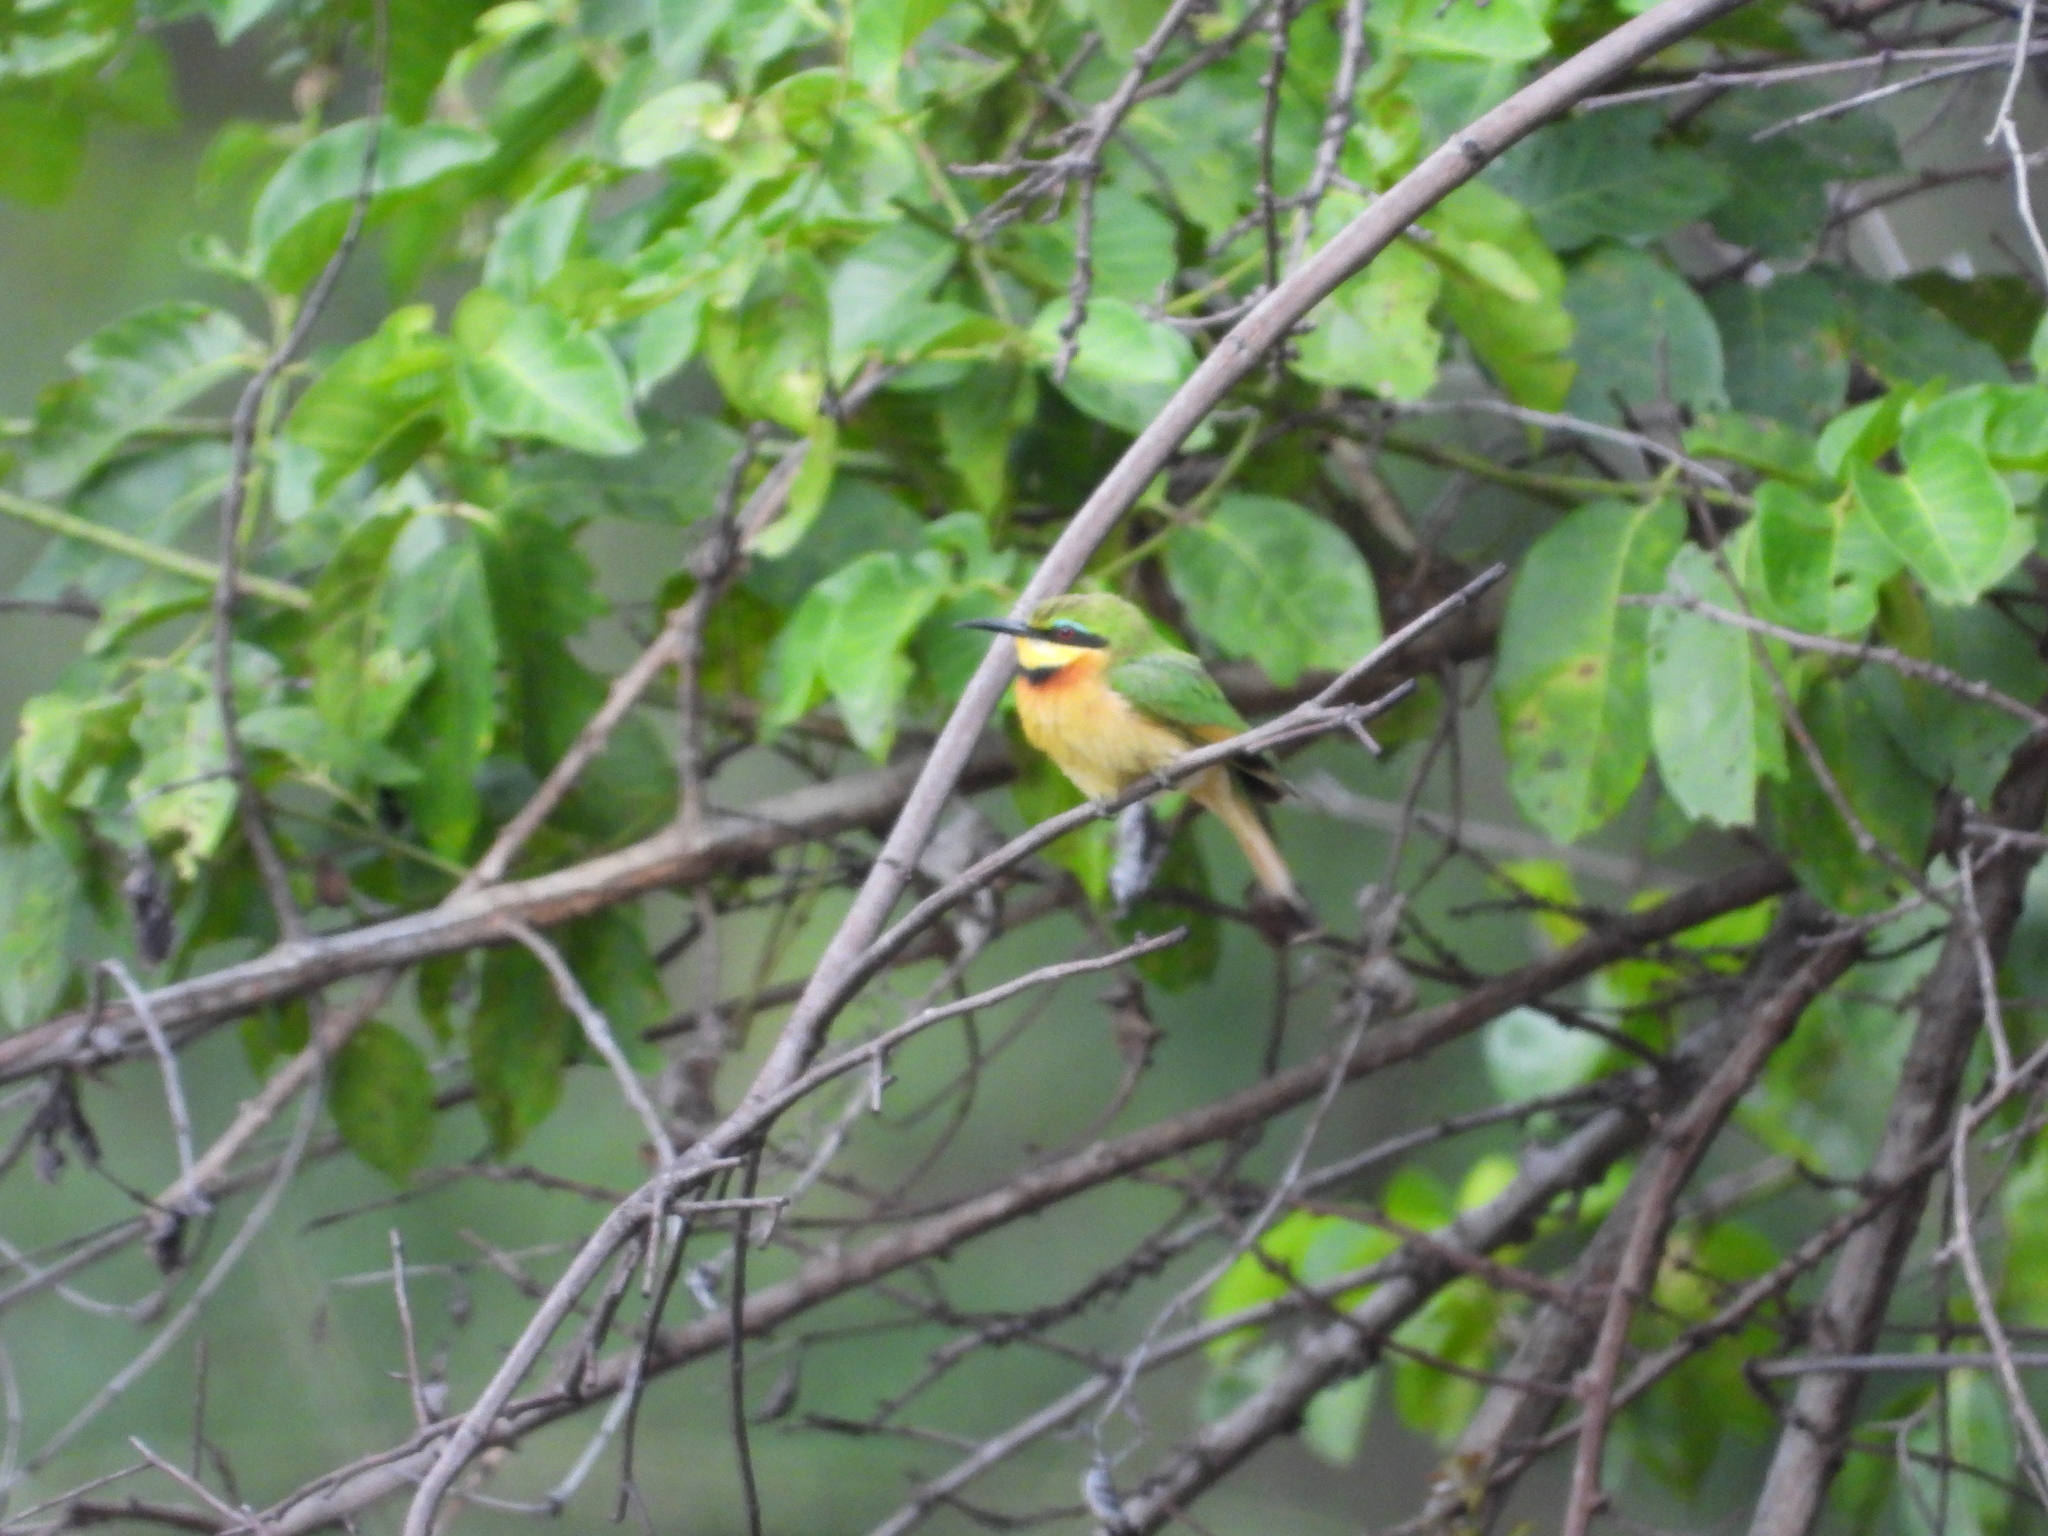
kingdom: Animalia
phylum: Chordata
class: Aves
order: Coraciiformes
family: Meropidae
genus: Merops
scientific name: Merops pusillus
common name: Little bee-eater
